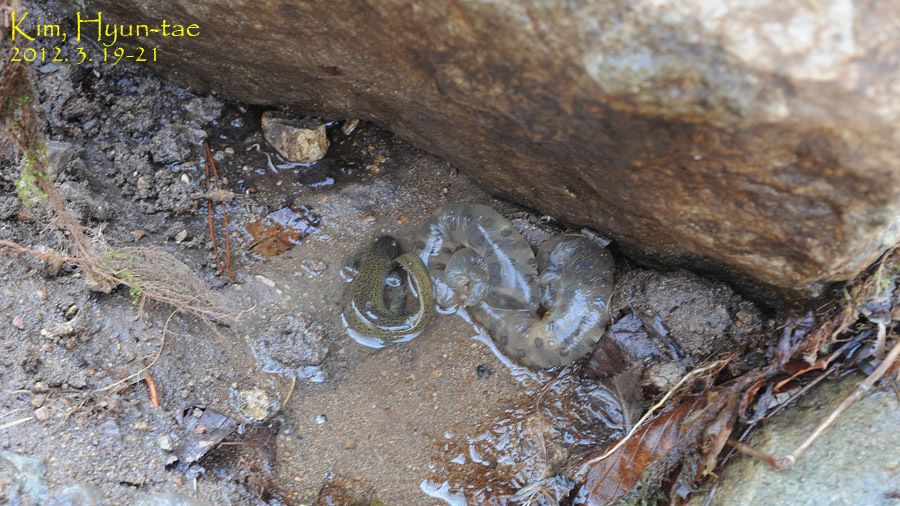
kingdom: Animalia
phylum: Chordata
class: Amphibia
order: Caudata
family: Hynobiidae
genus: Hynobius
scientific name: Hynobius leechii
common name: Gensan salamander
